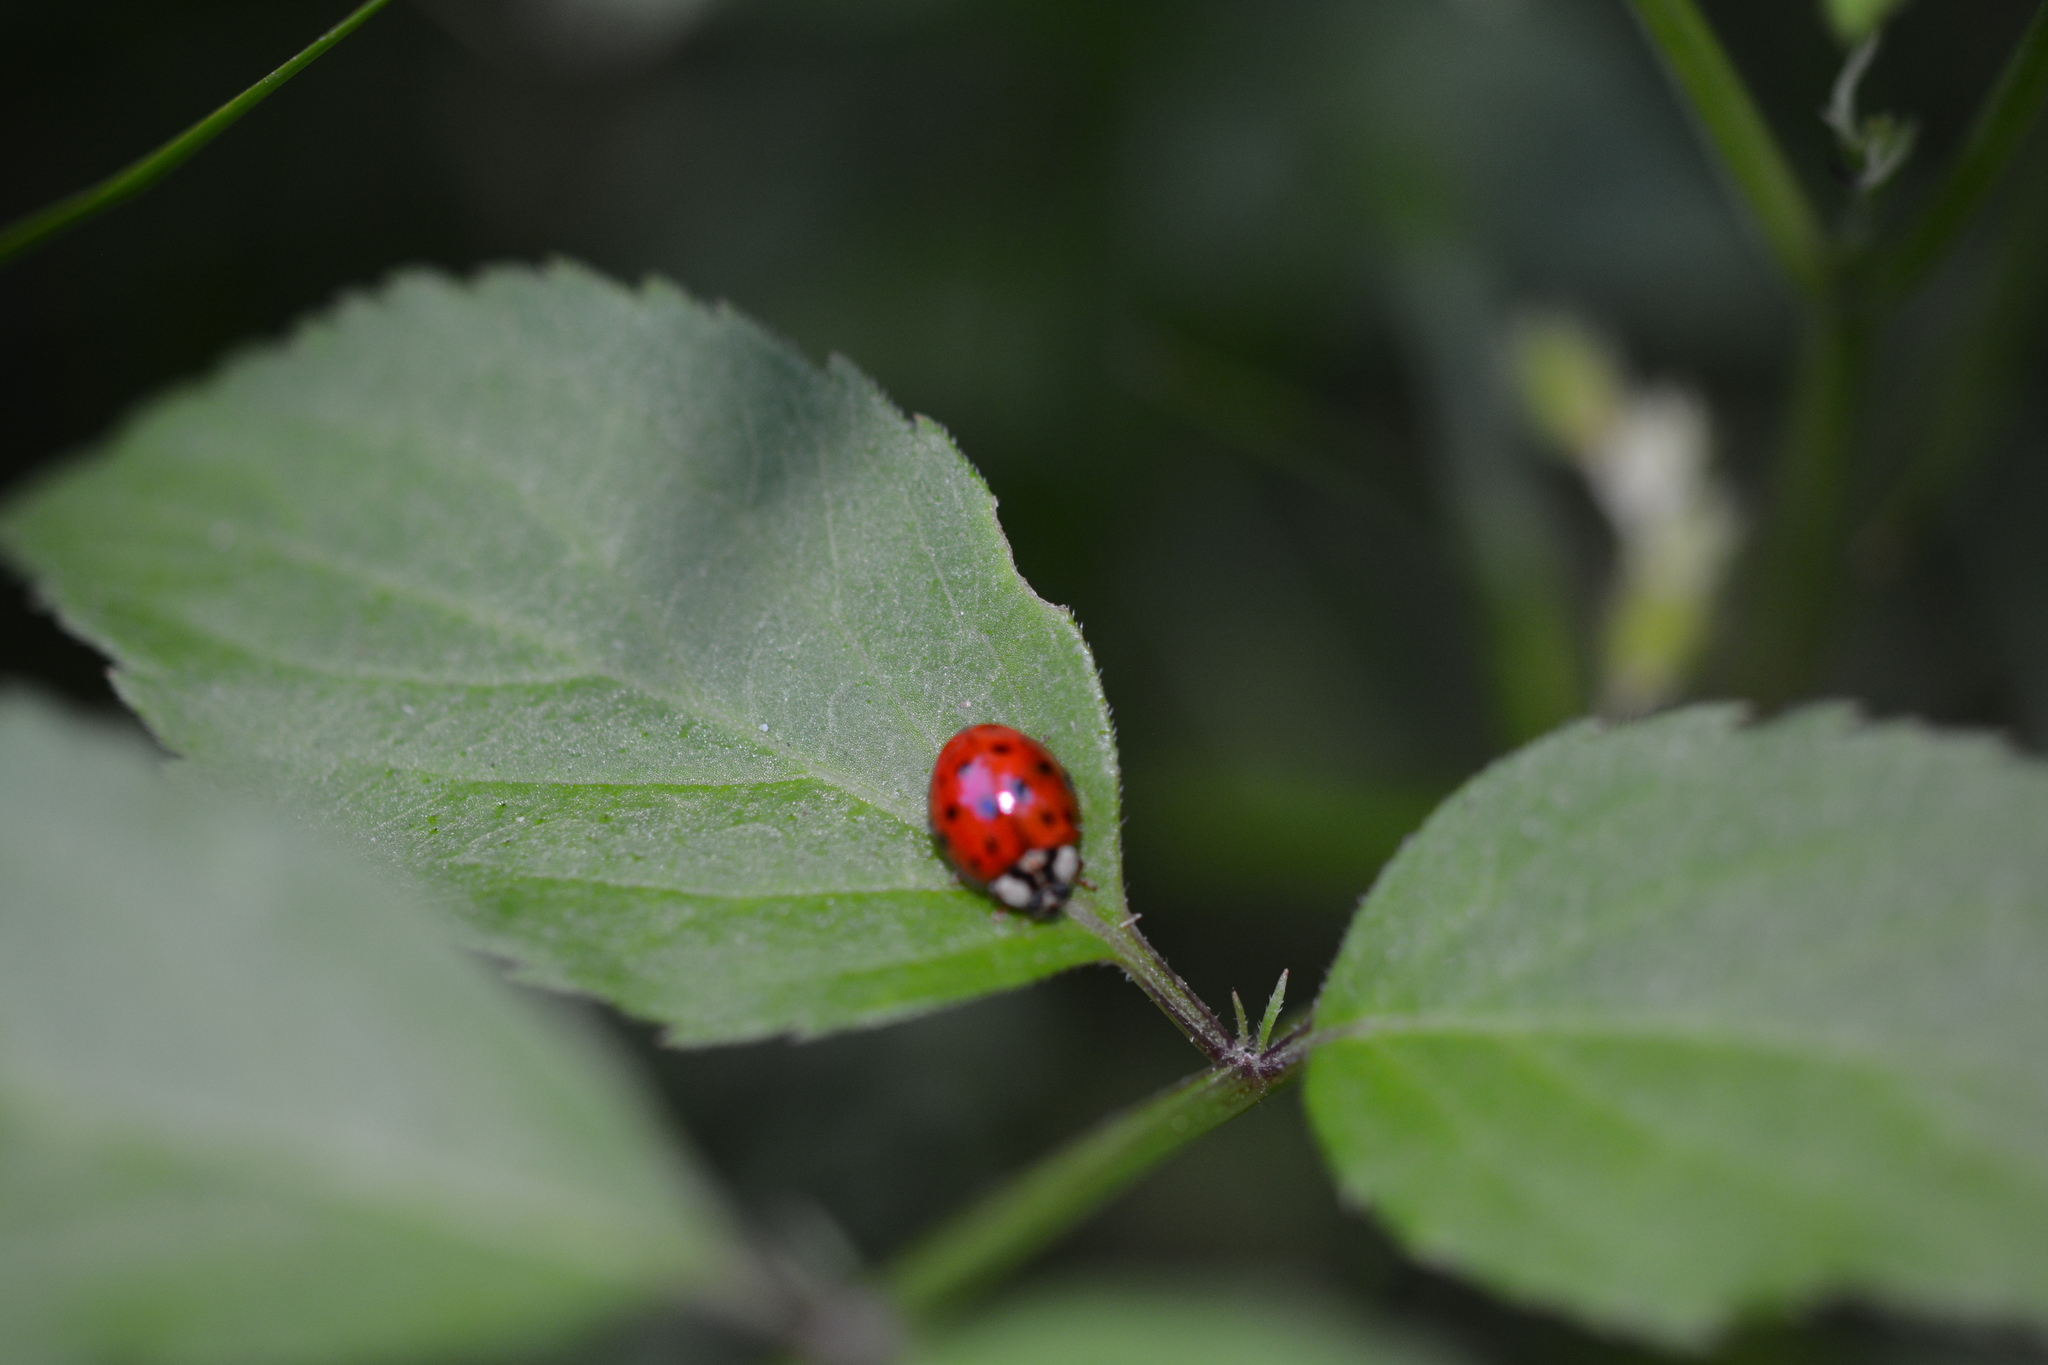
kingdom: Animalia
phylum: Arthropoda
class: Insecta
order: Coleoptera
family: Coccinellidae
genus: Harmonia
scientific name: Harmonia axyridis
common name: Harlequin ladybird
